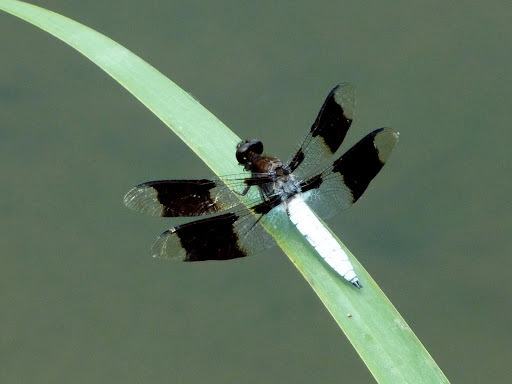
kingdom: Animalia
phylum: Arthropoda
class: Insecta
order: Odonata
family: Libellulidae
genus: Plathemis
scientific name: Plathemis lydia
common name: Common whitetail
